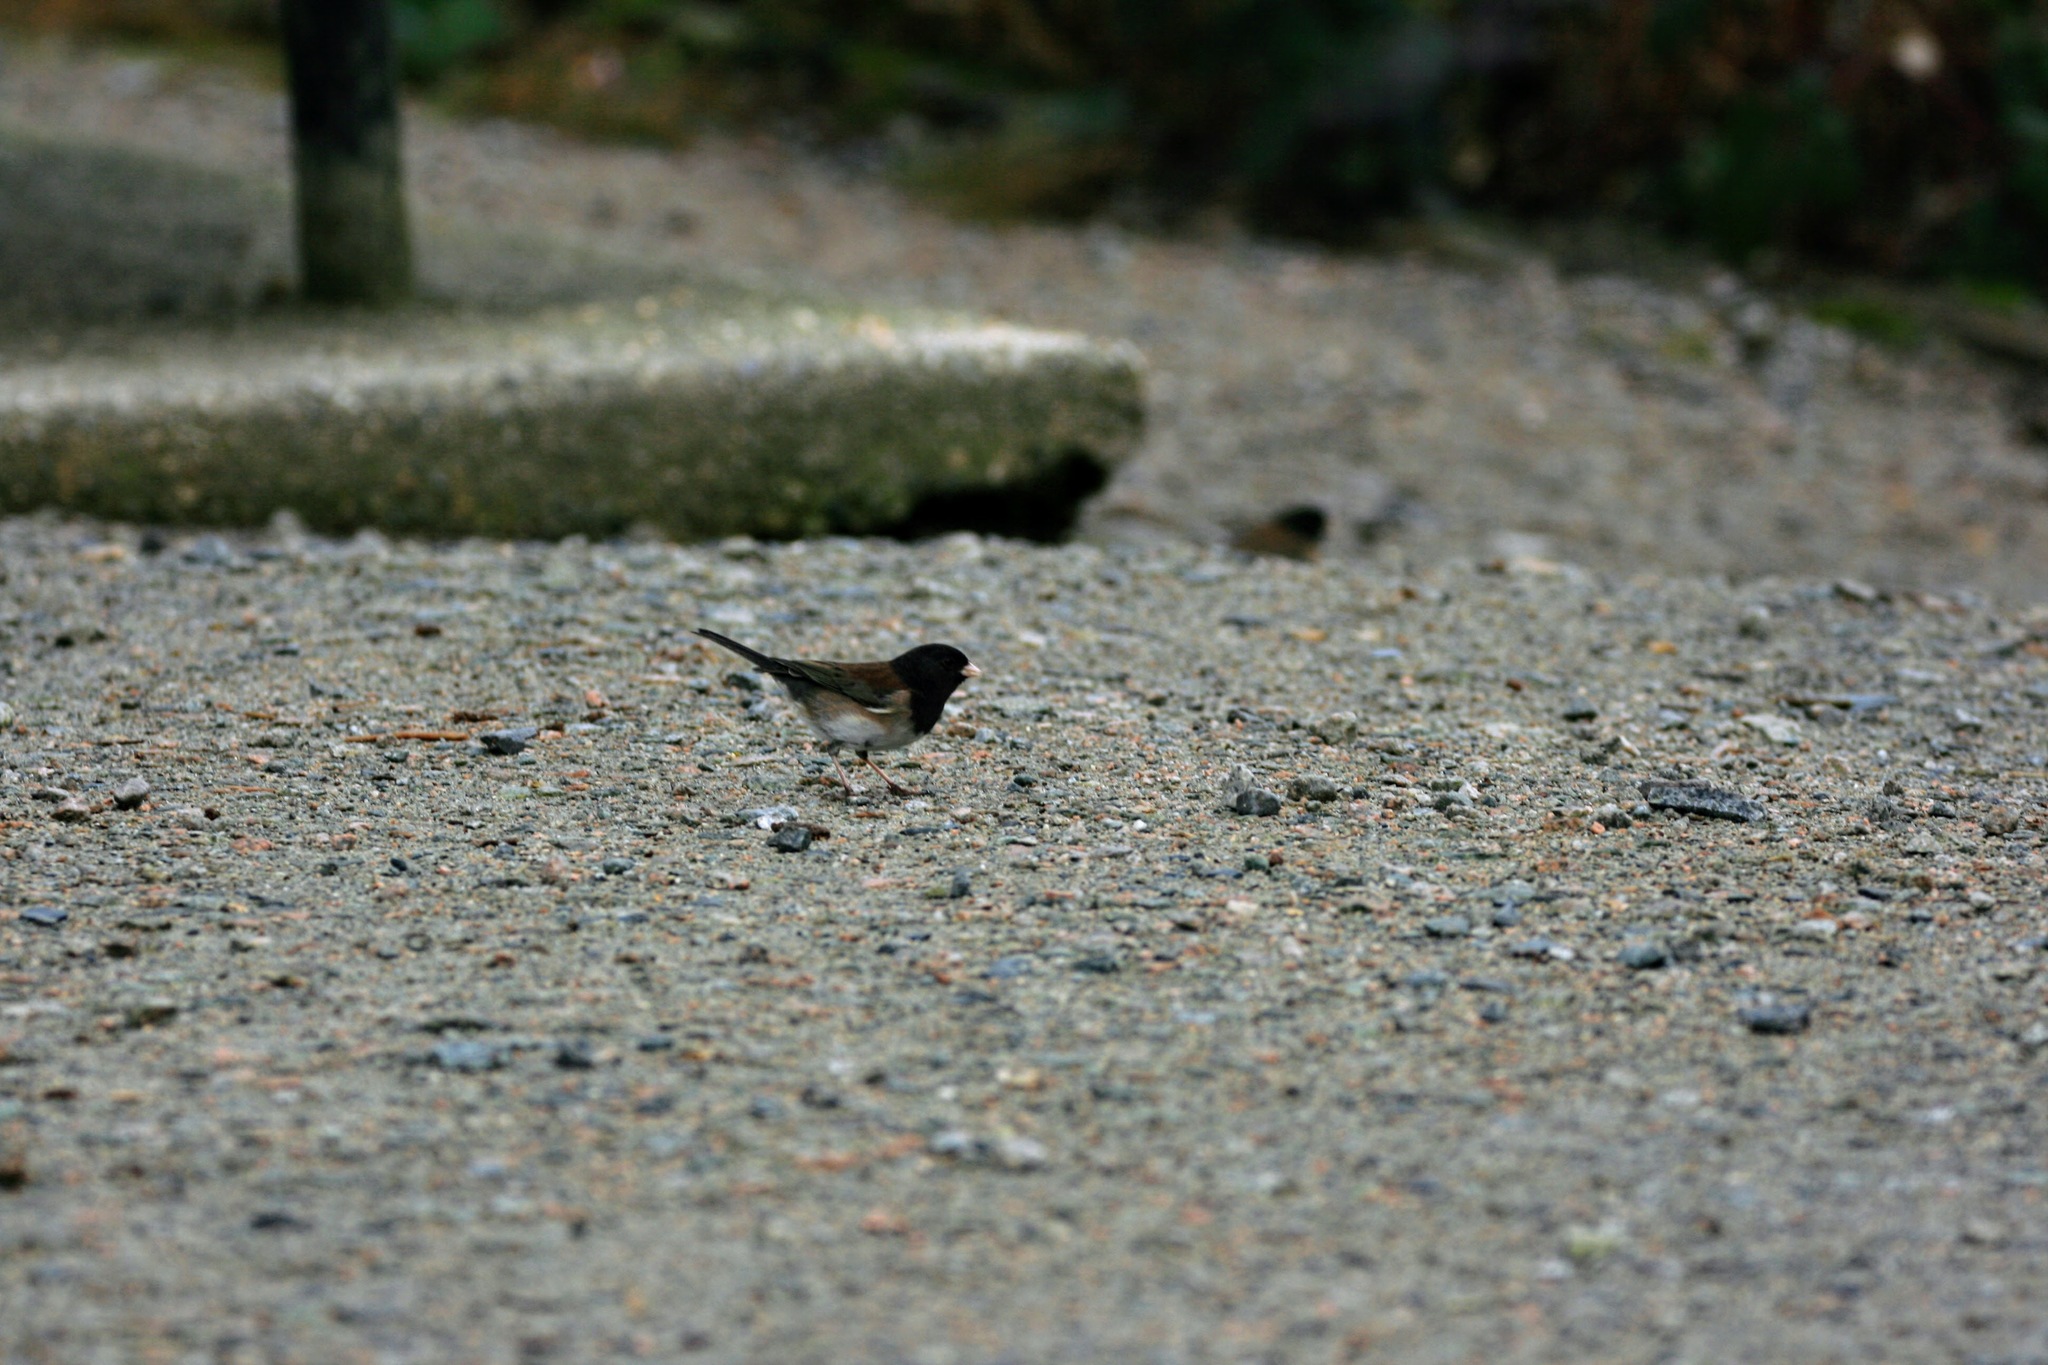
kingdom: Animalia
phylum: Chordata
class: Aves
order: Passeriformes
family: Passerellidae
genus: Junco
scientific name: Junco hyemalis
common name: Dark-eyed junco
